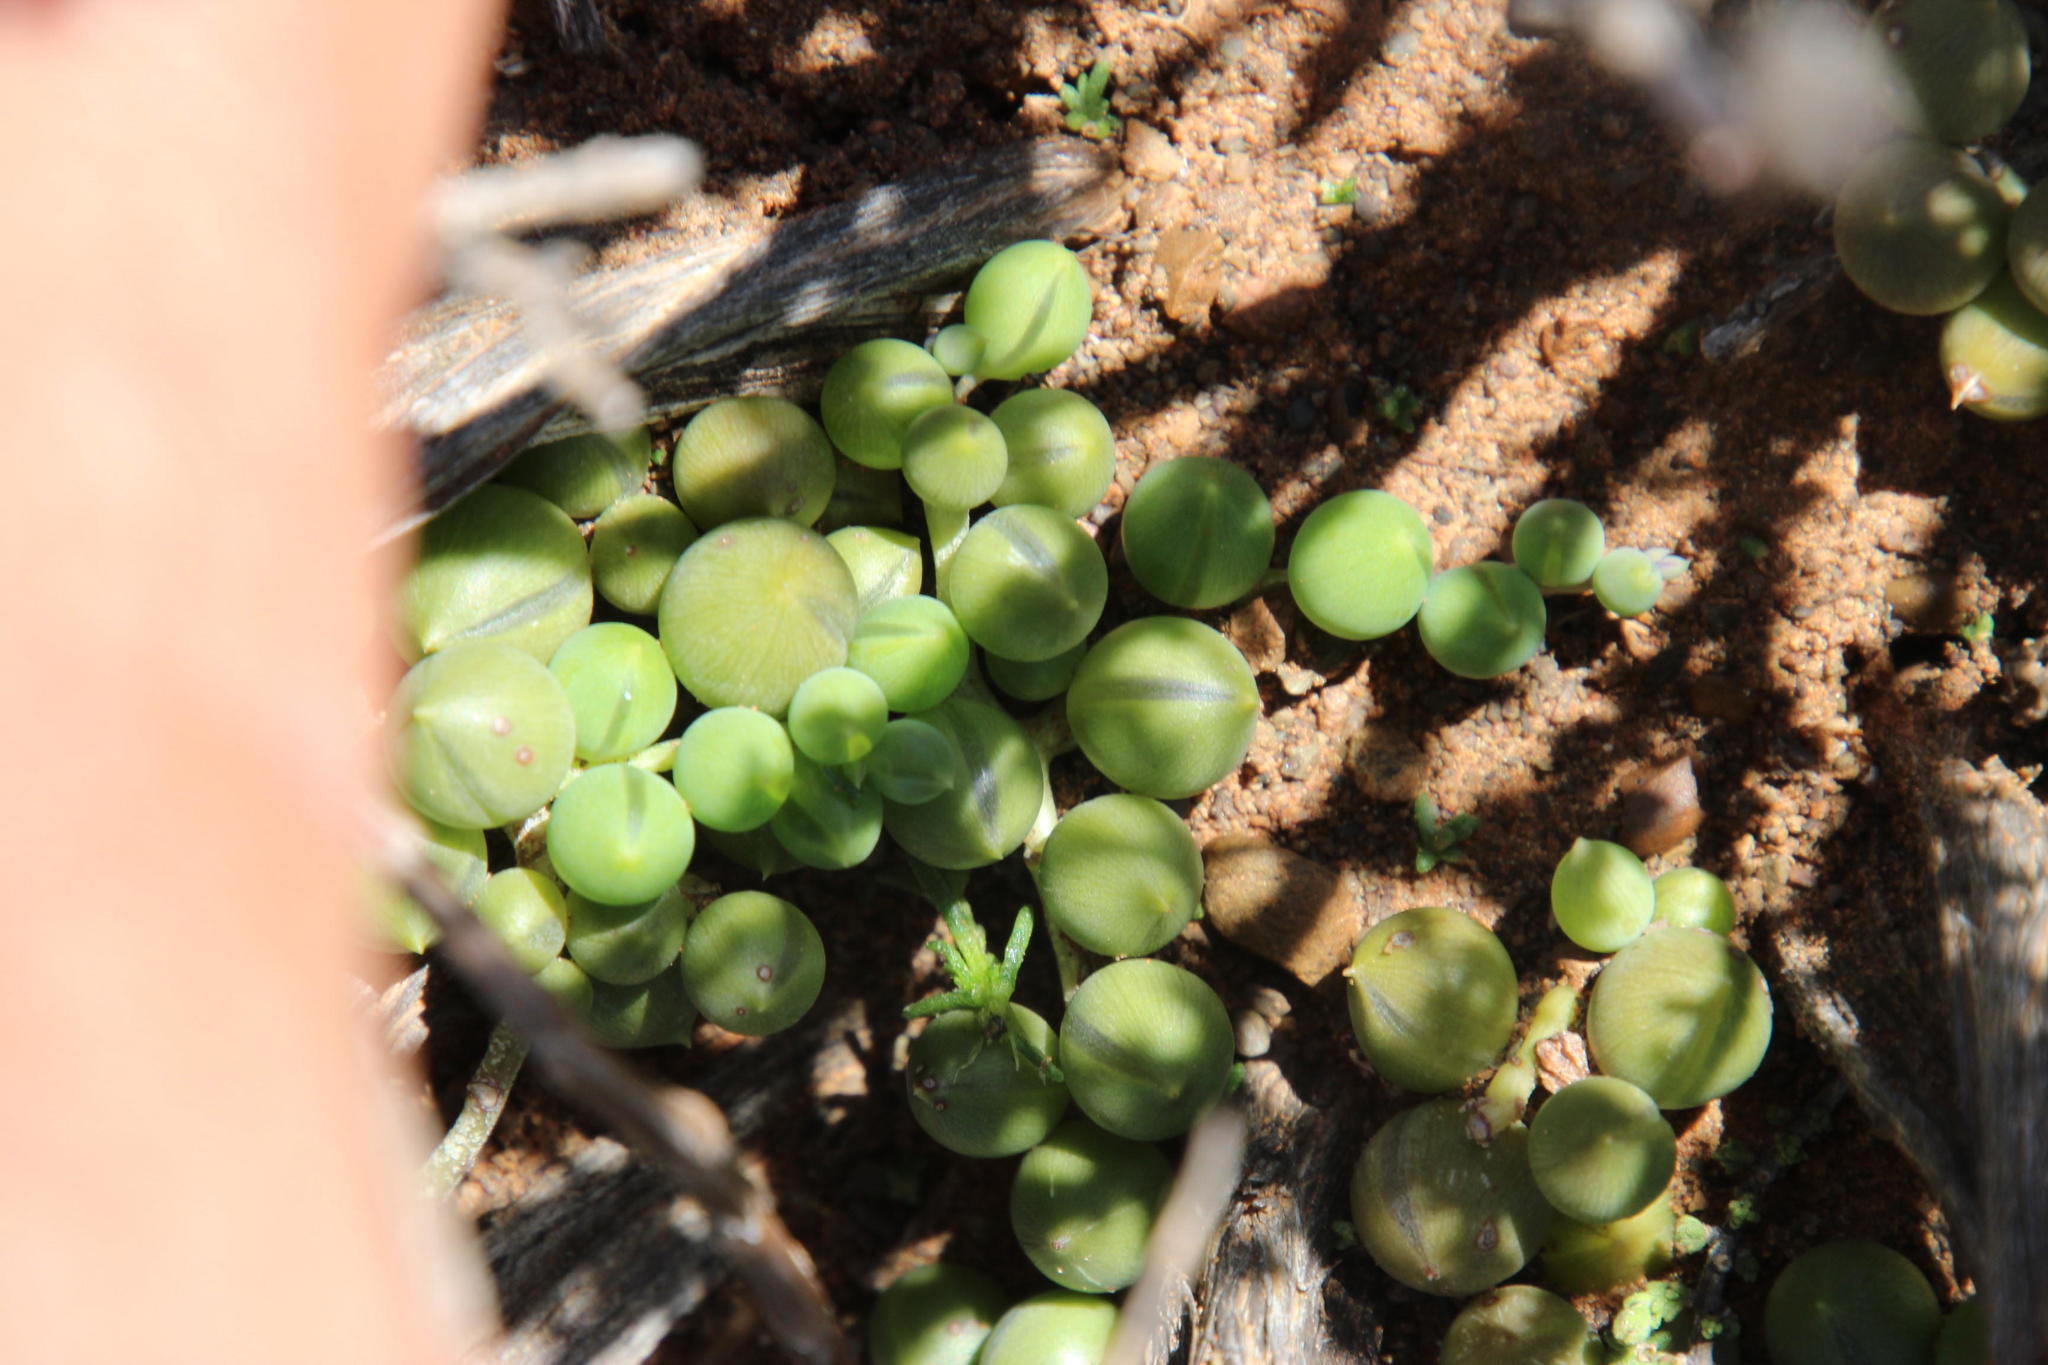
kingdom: Plantae
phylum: Tracheophyta
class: Magnoliopsida
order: Asterales
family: Asteraceae
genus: Curio
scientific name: Curio rowleyanus
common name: String-of-beads
